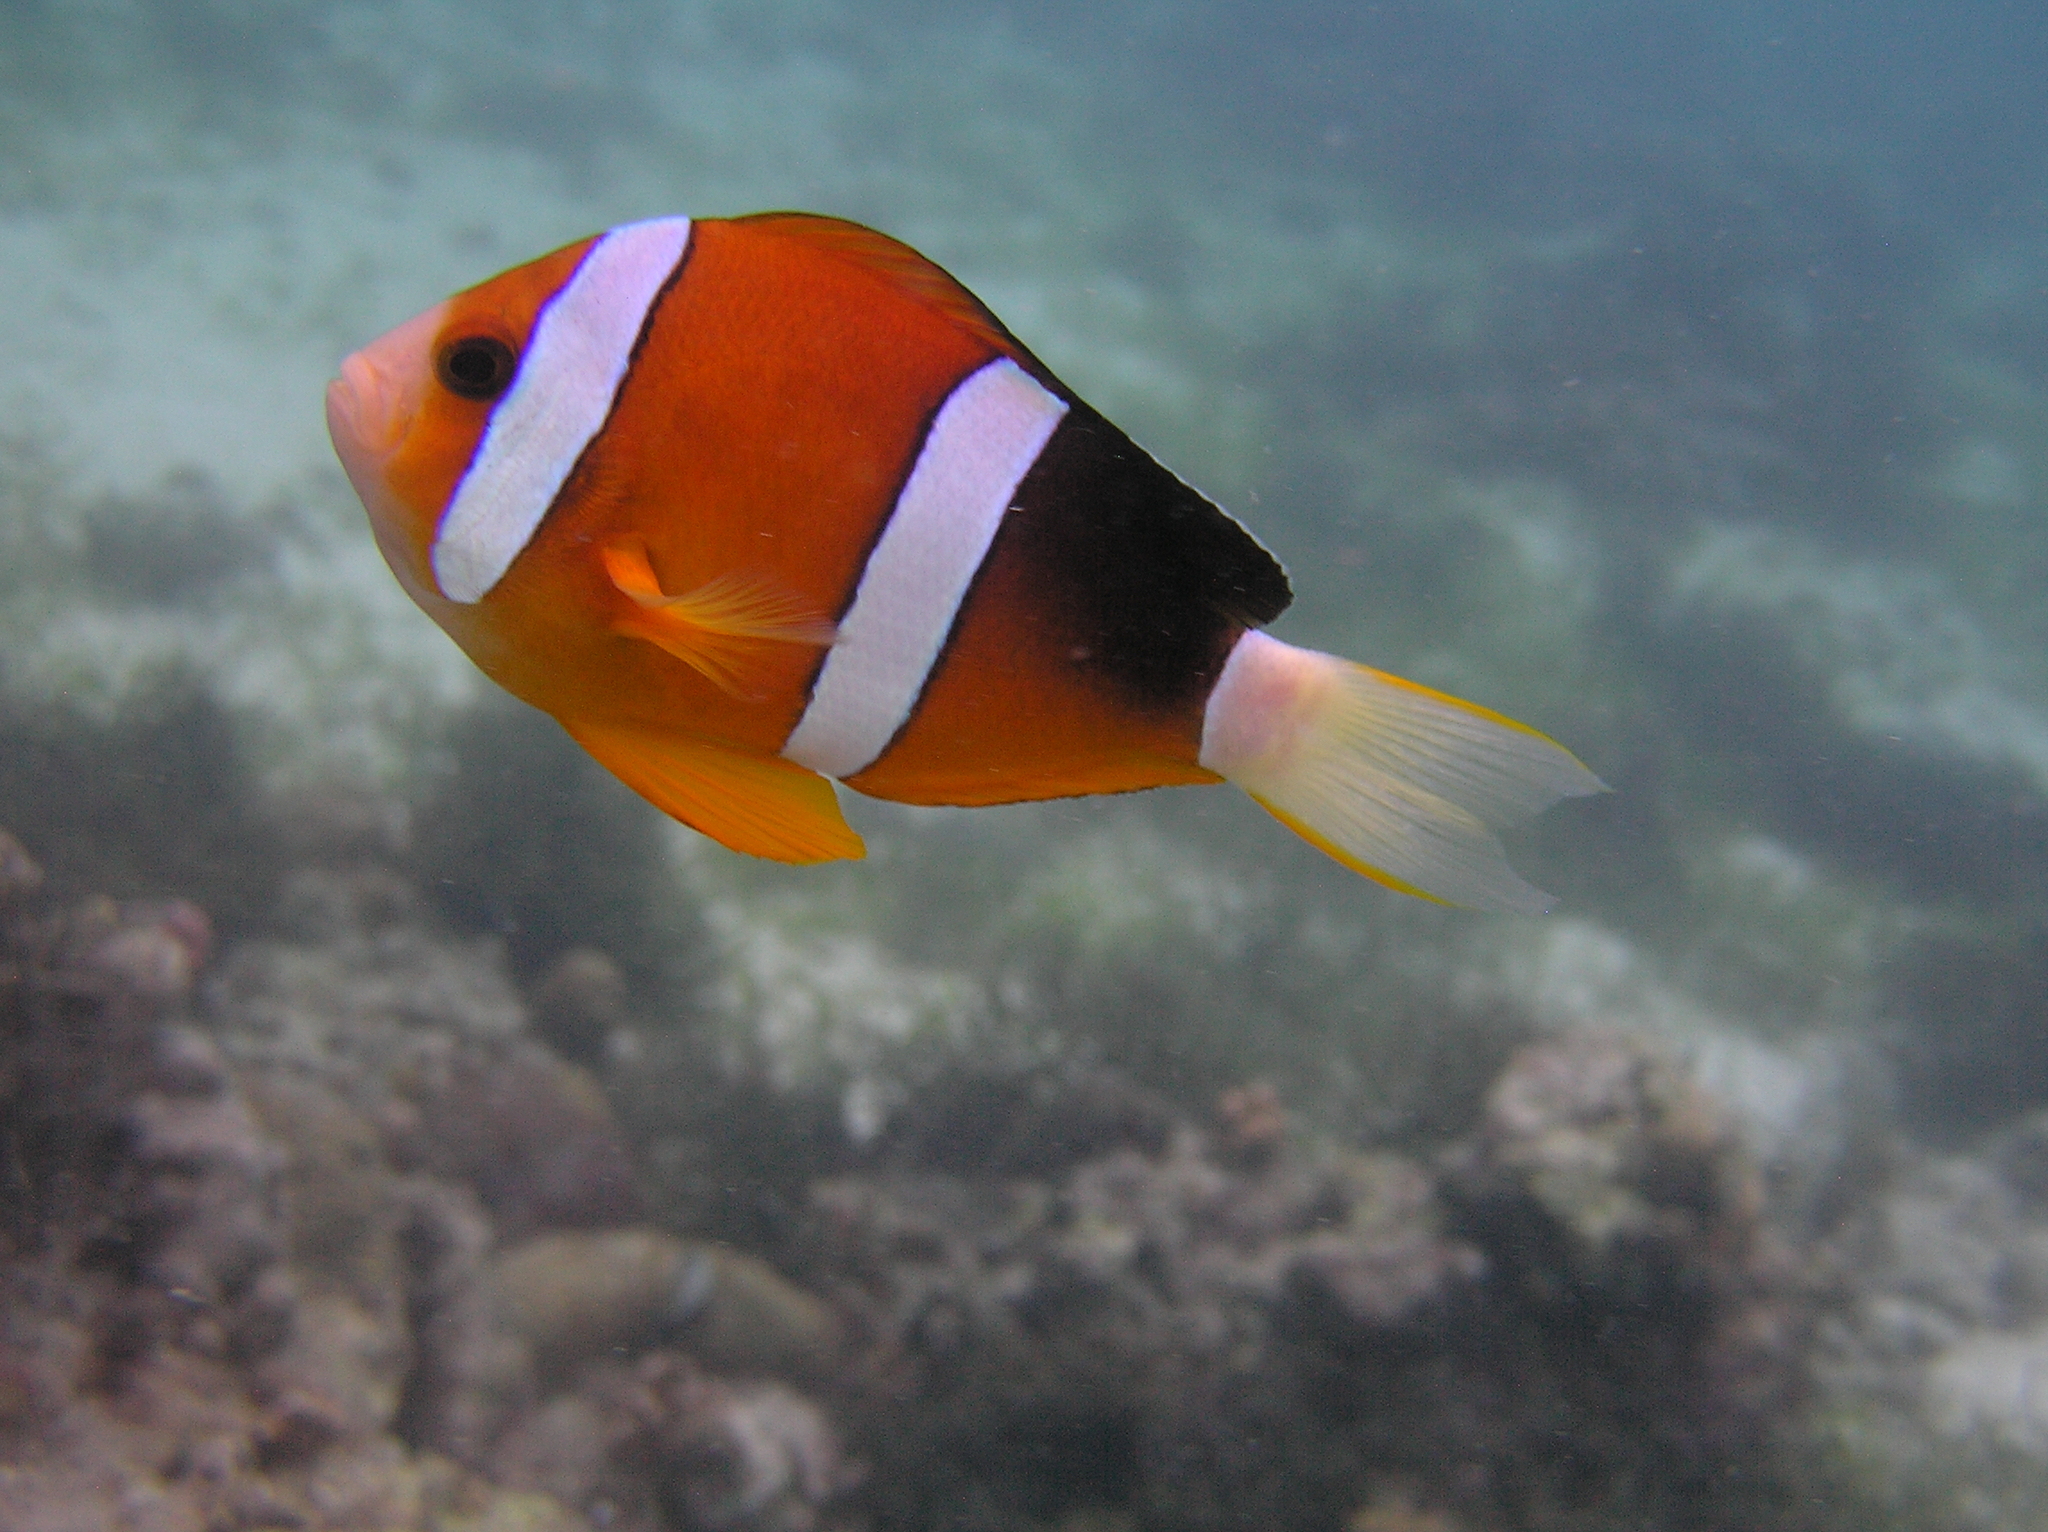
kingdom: Animalia
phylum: Chordata
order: Perciformes
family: Pomacentridae
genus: Amphiprion
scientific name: Amphiprion clarkii
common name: Clark's anemonefish
